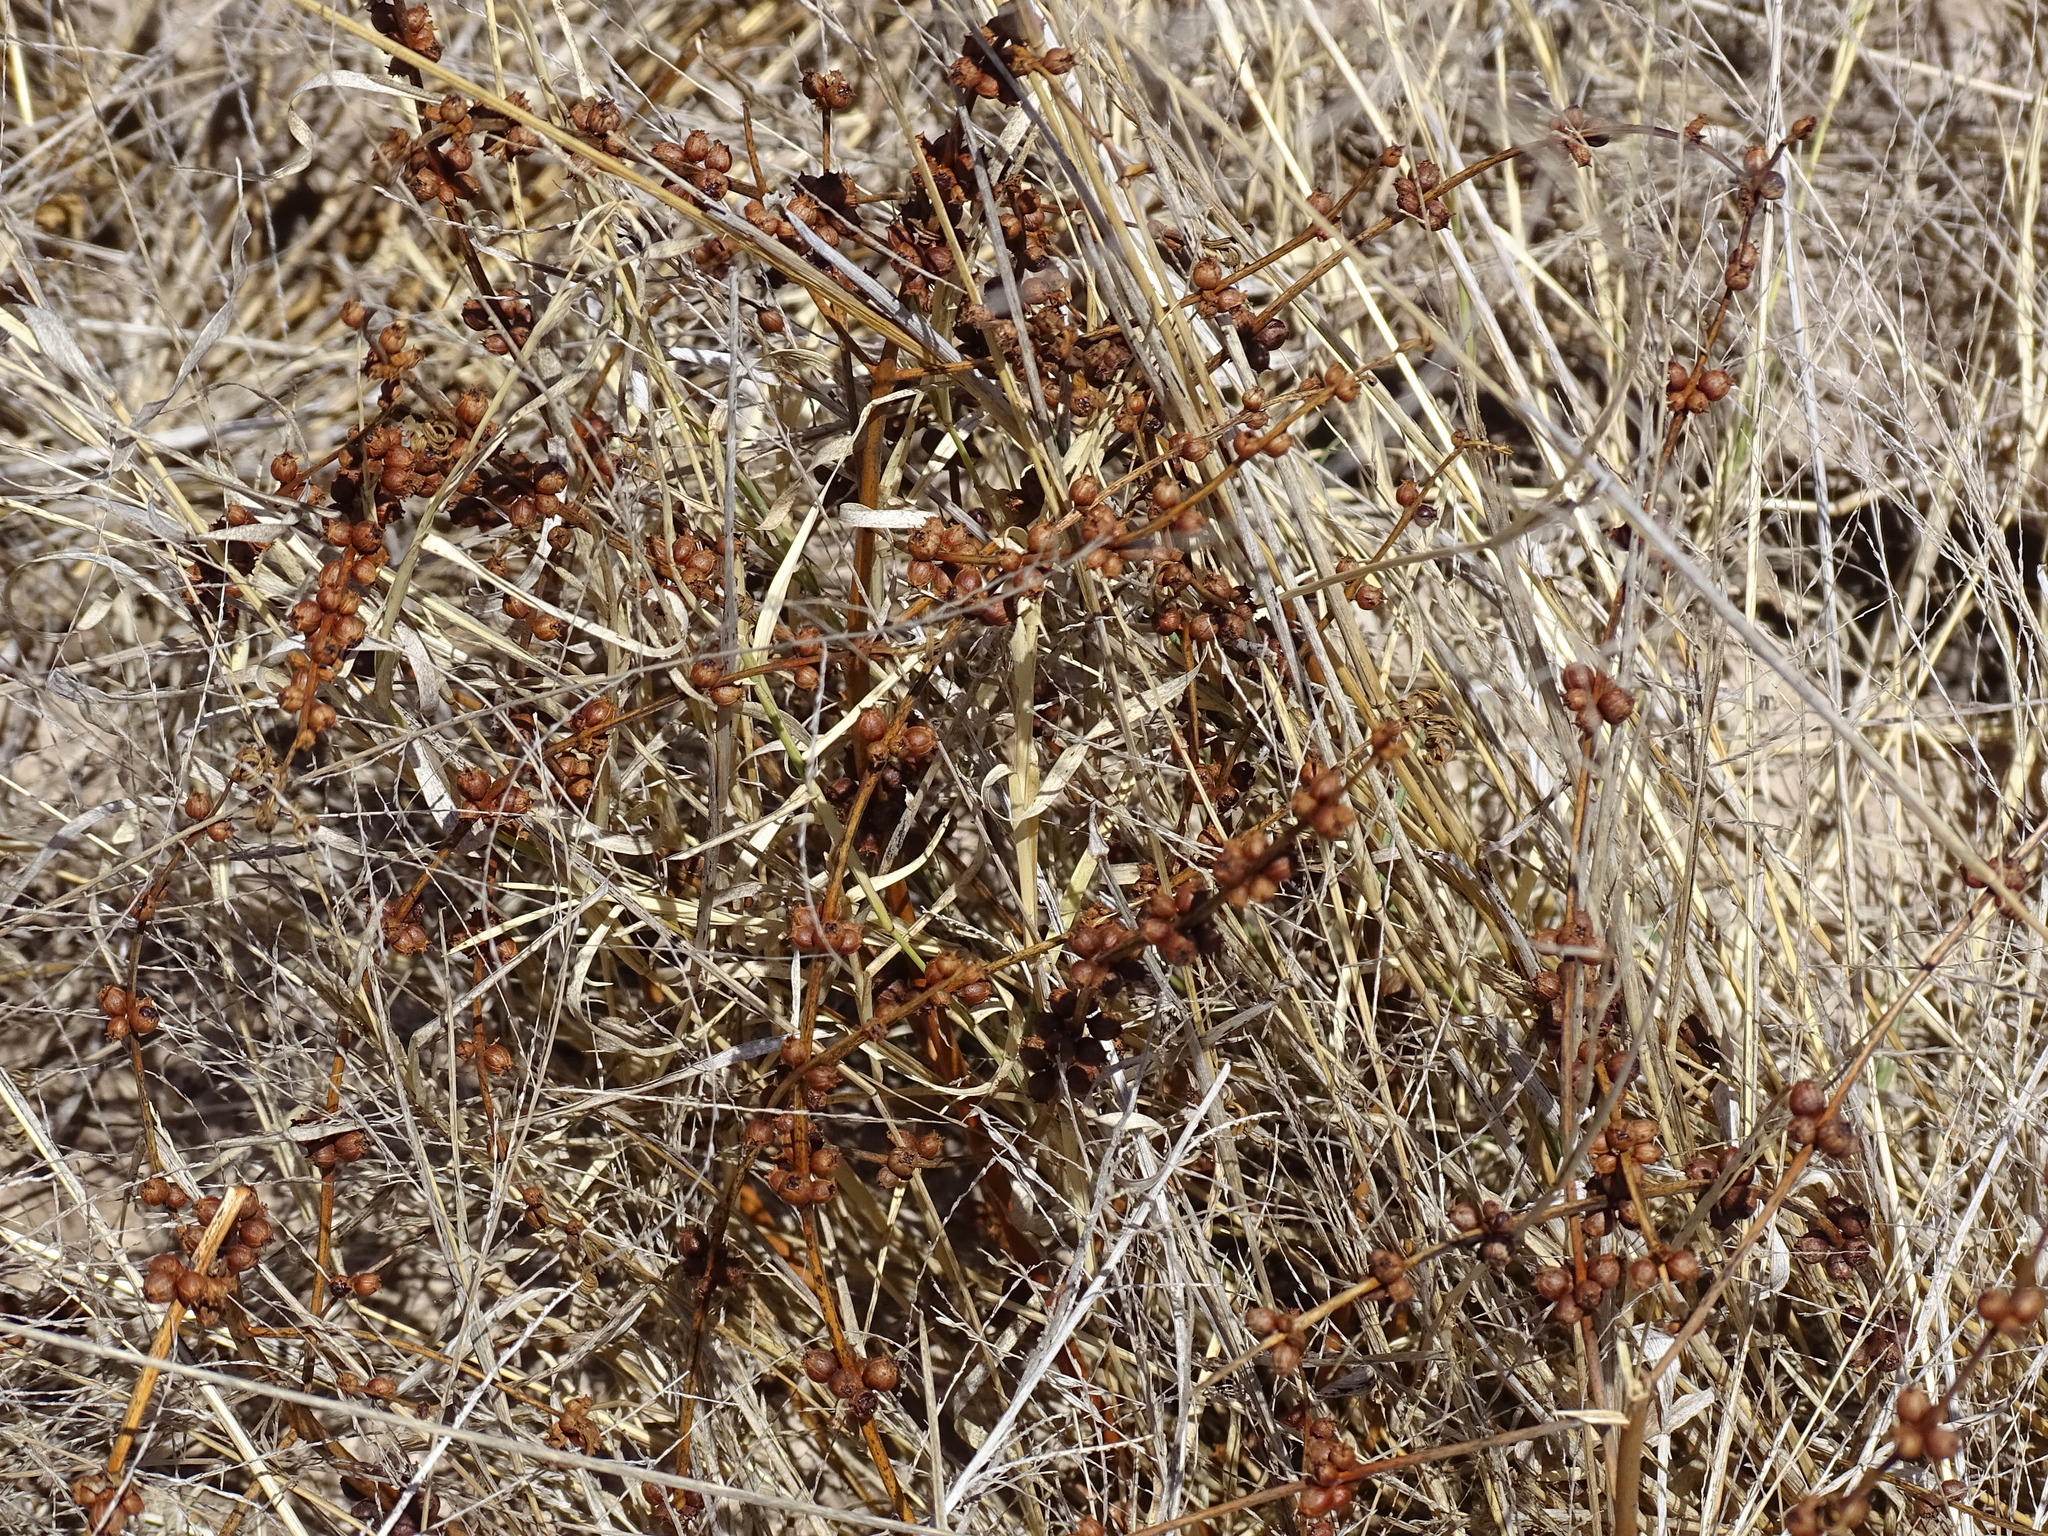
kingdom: Plantae
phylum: Tracheophyta
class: Magnoliopsida
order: Myrtales
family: Lythraceae
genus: Ammannia
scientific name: Ammannia coccinea
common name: Valley redstem
